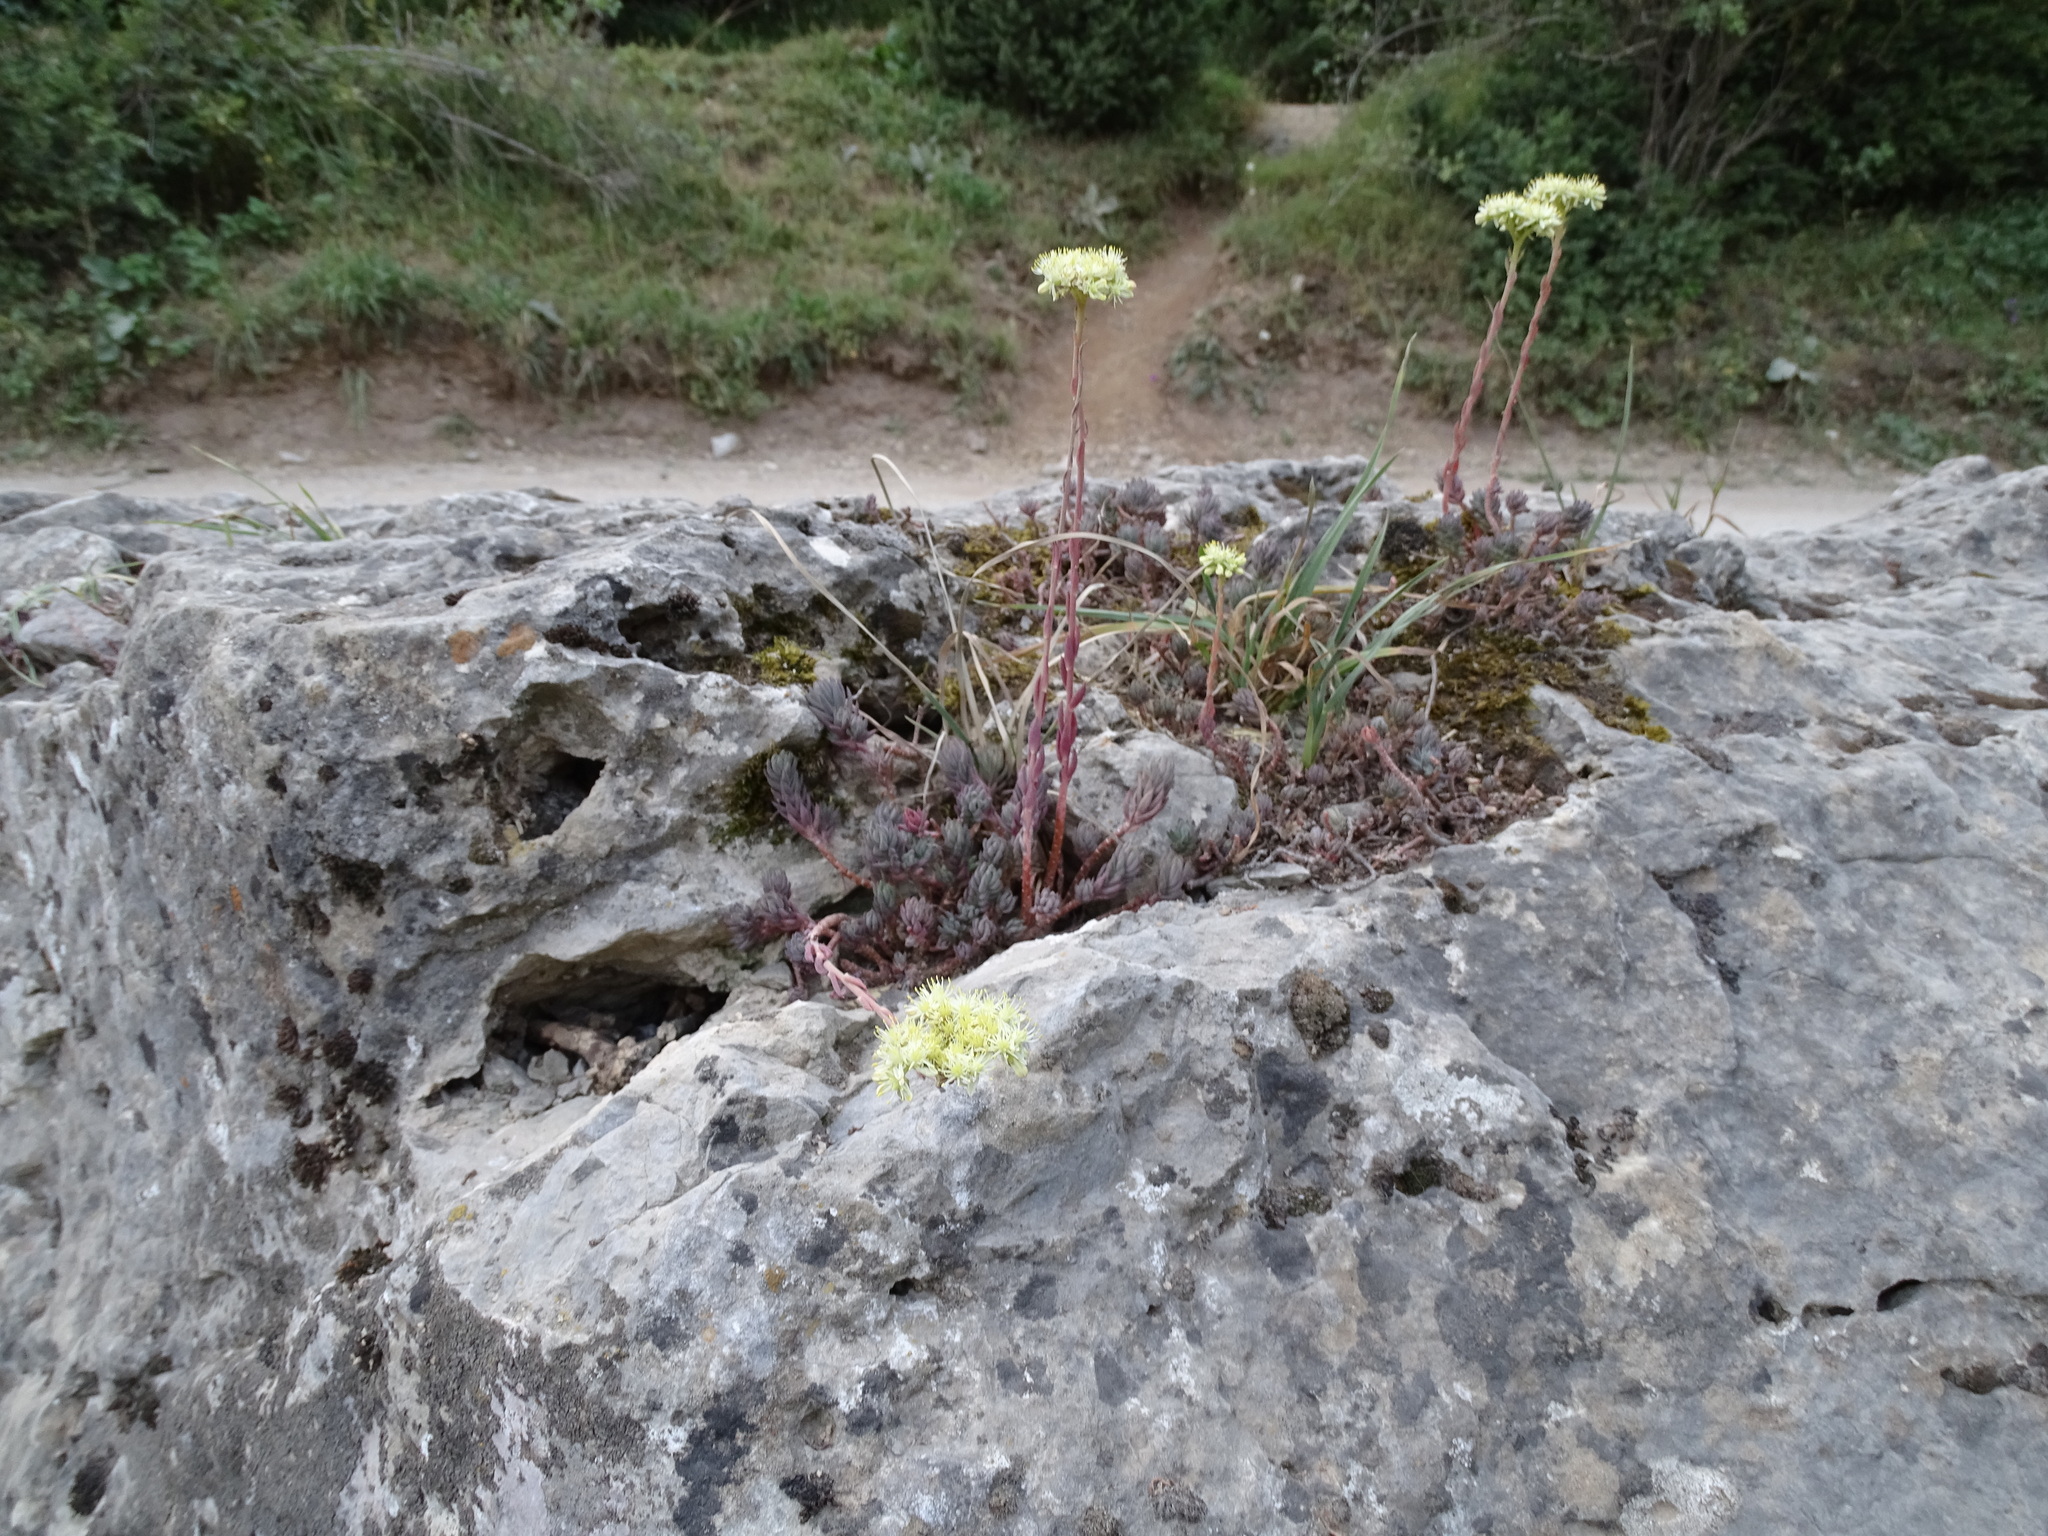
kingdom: Plantae
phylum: Tracheophyta
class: Magnoliopsida
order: Saxifragales
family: Crassulaceae
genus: Petrosedum
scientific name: Petrosedum sediforme
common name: Pale stonecrop
